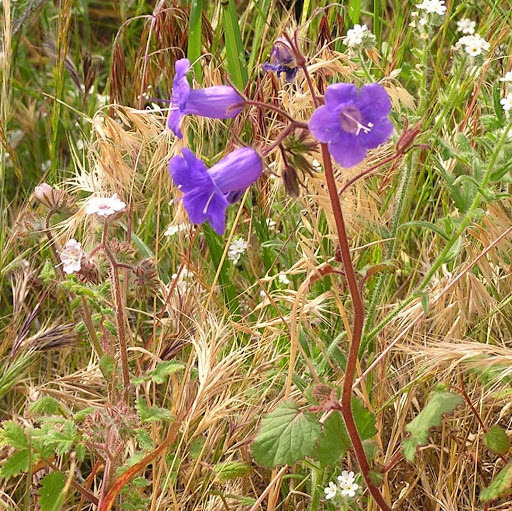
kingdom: Plantae
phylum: Tracheophyta
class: Magnoliopsida
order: Boraginales
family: Hydrophyllaceae
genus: Phacelia
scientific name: Phacelia minor
